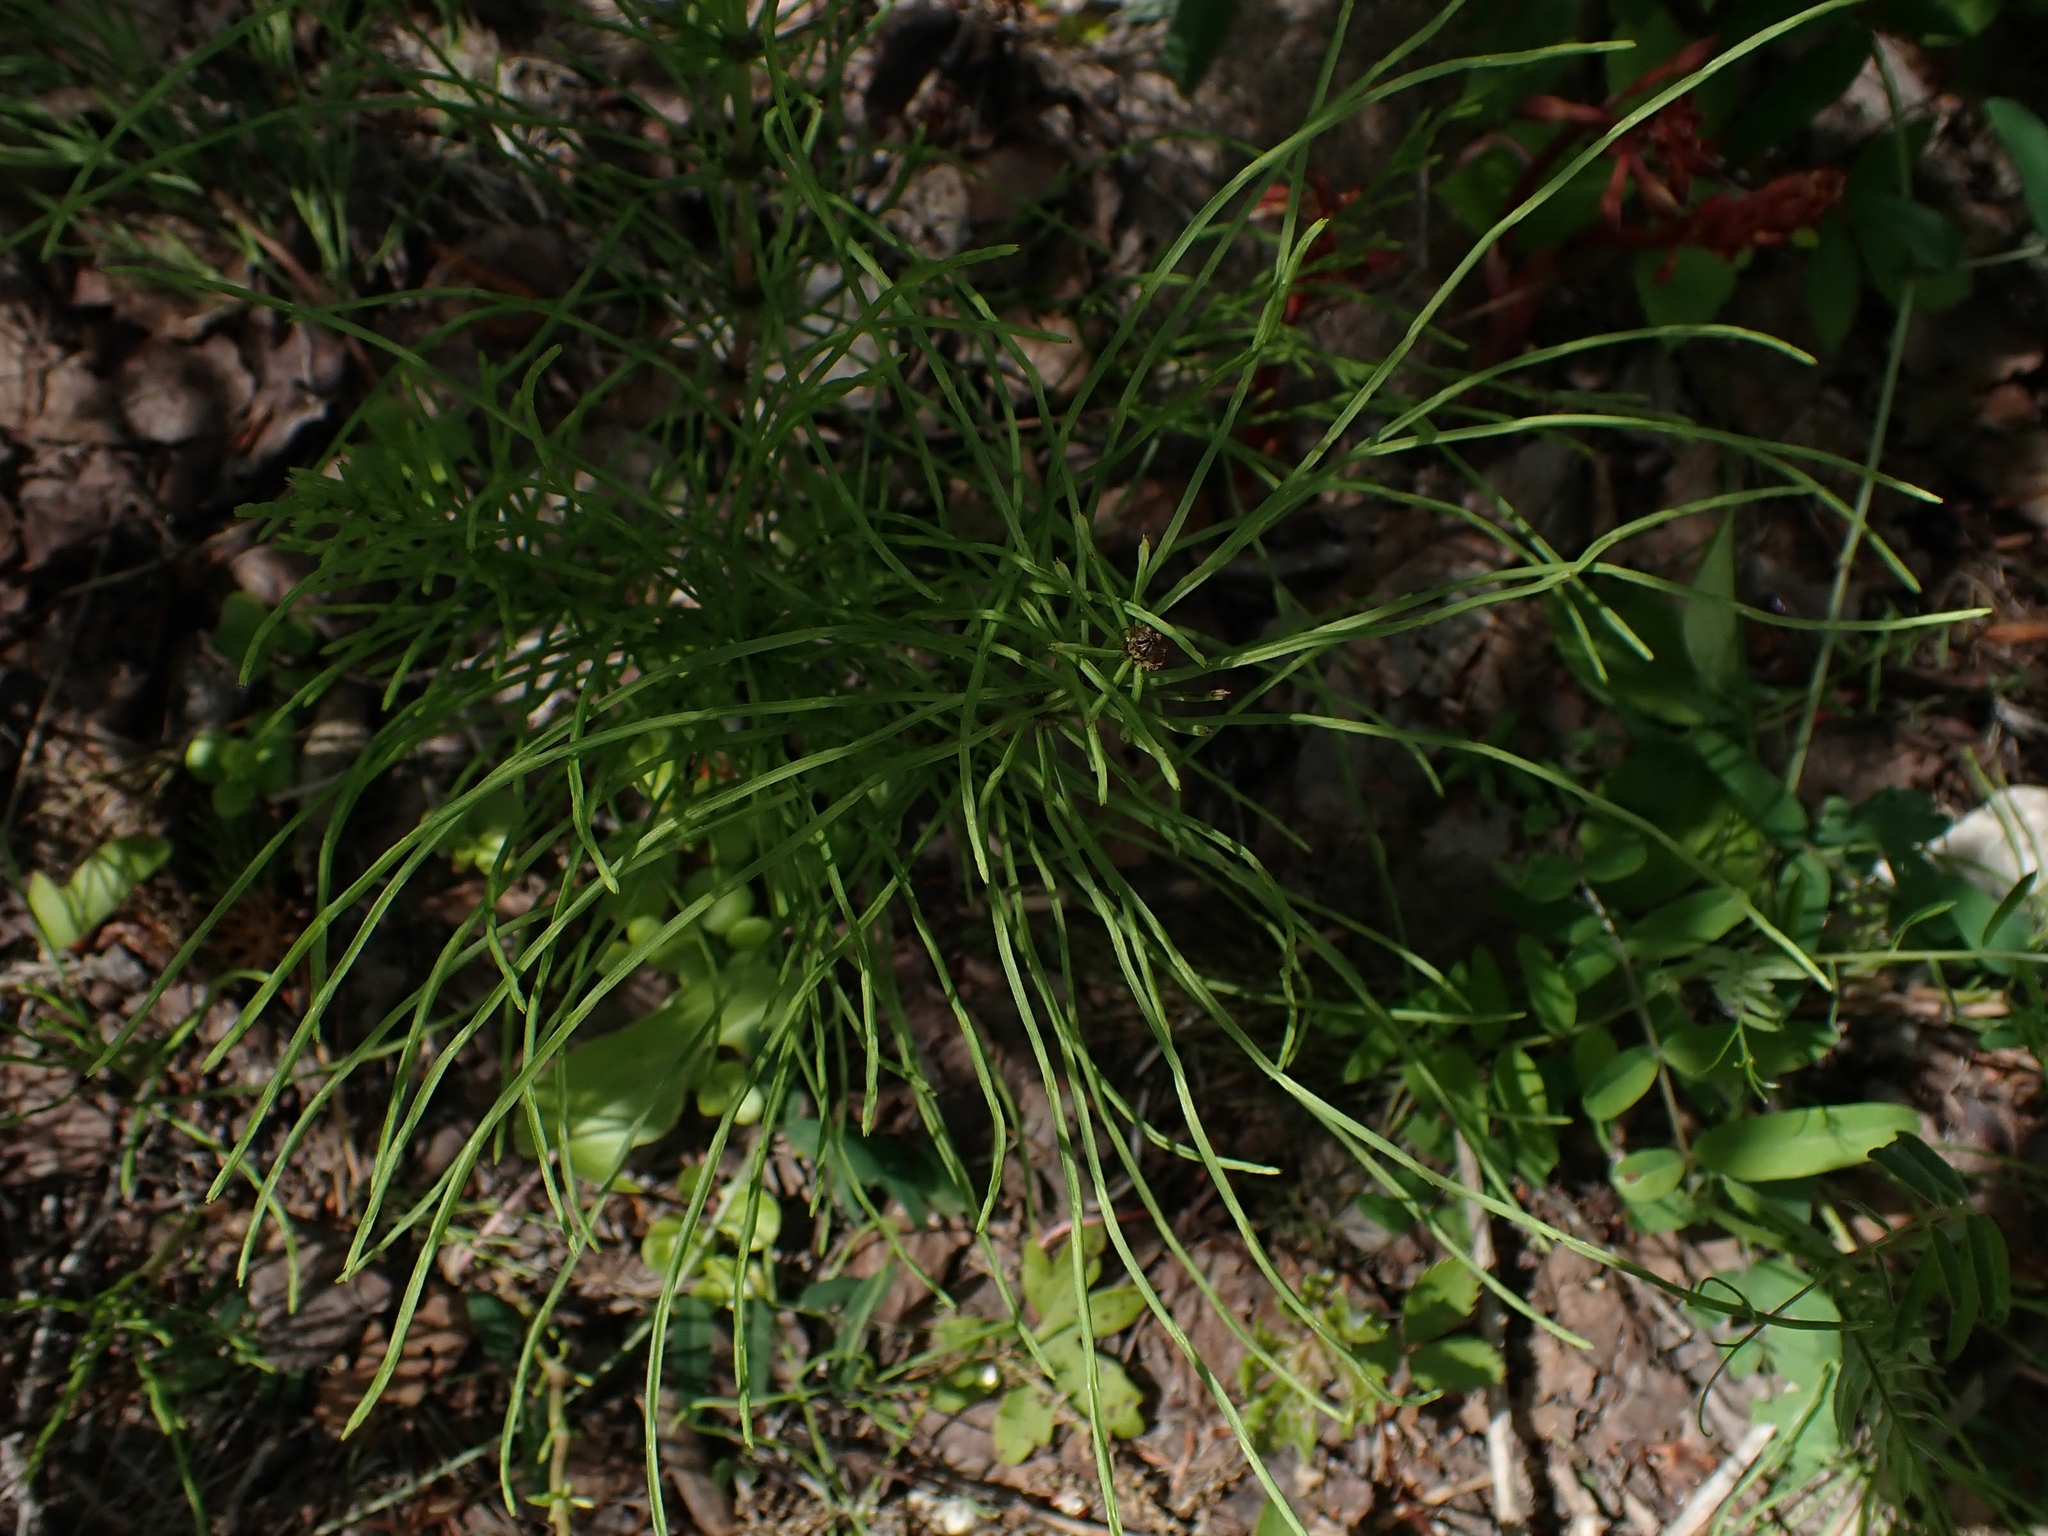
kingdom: Plantae
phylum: Tracheophyta
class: Polypodiopsida
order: Equisetales
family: Equisetaceae
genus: Equisetum
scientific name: Equisetum pratense
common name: Meadow horsetail
